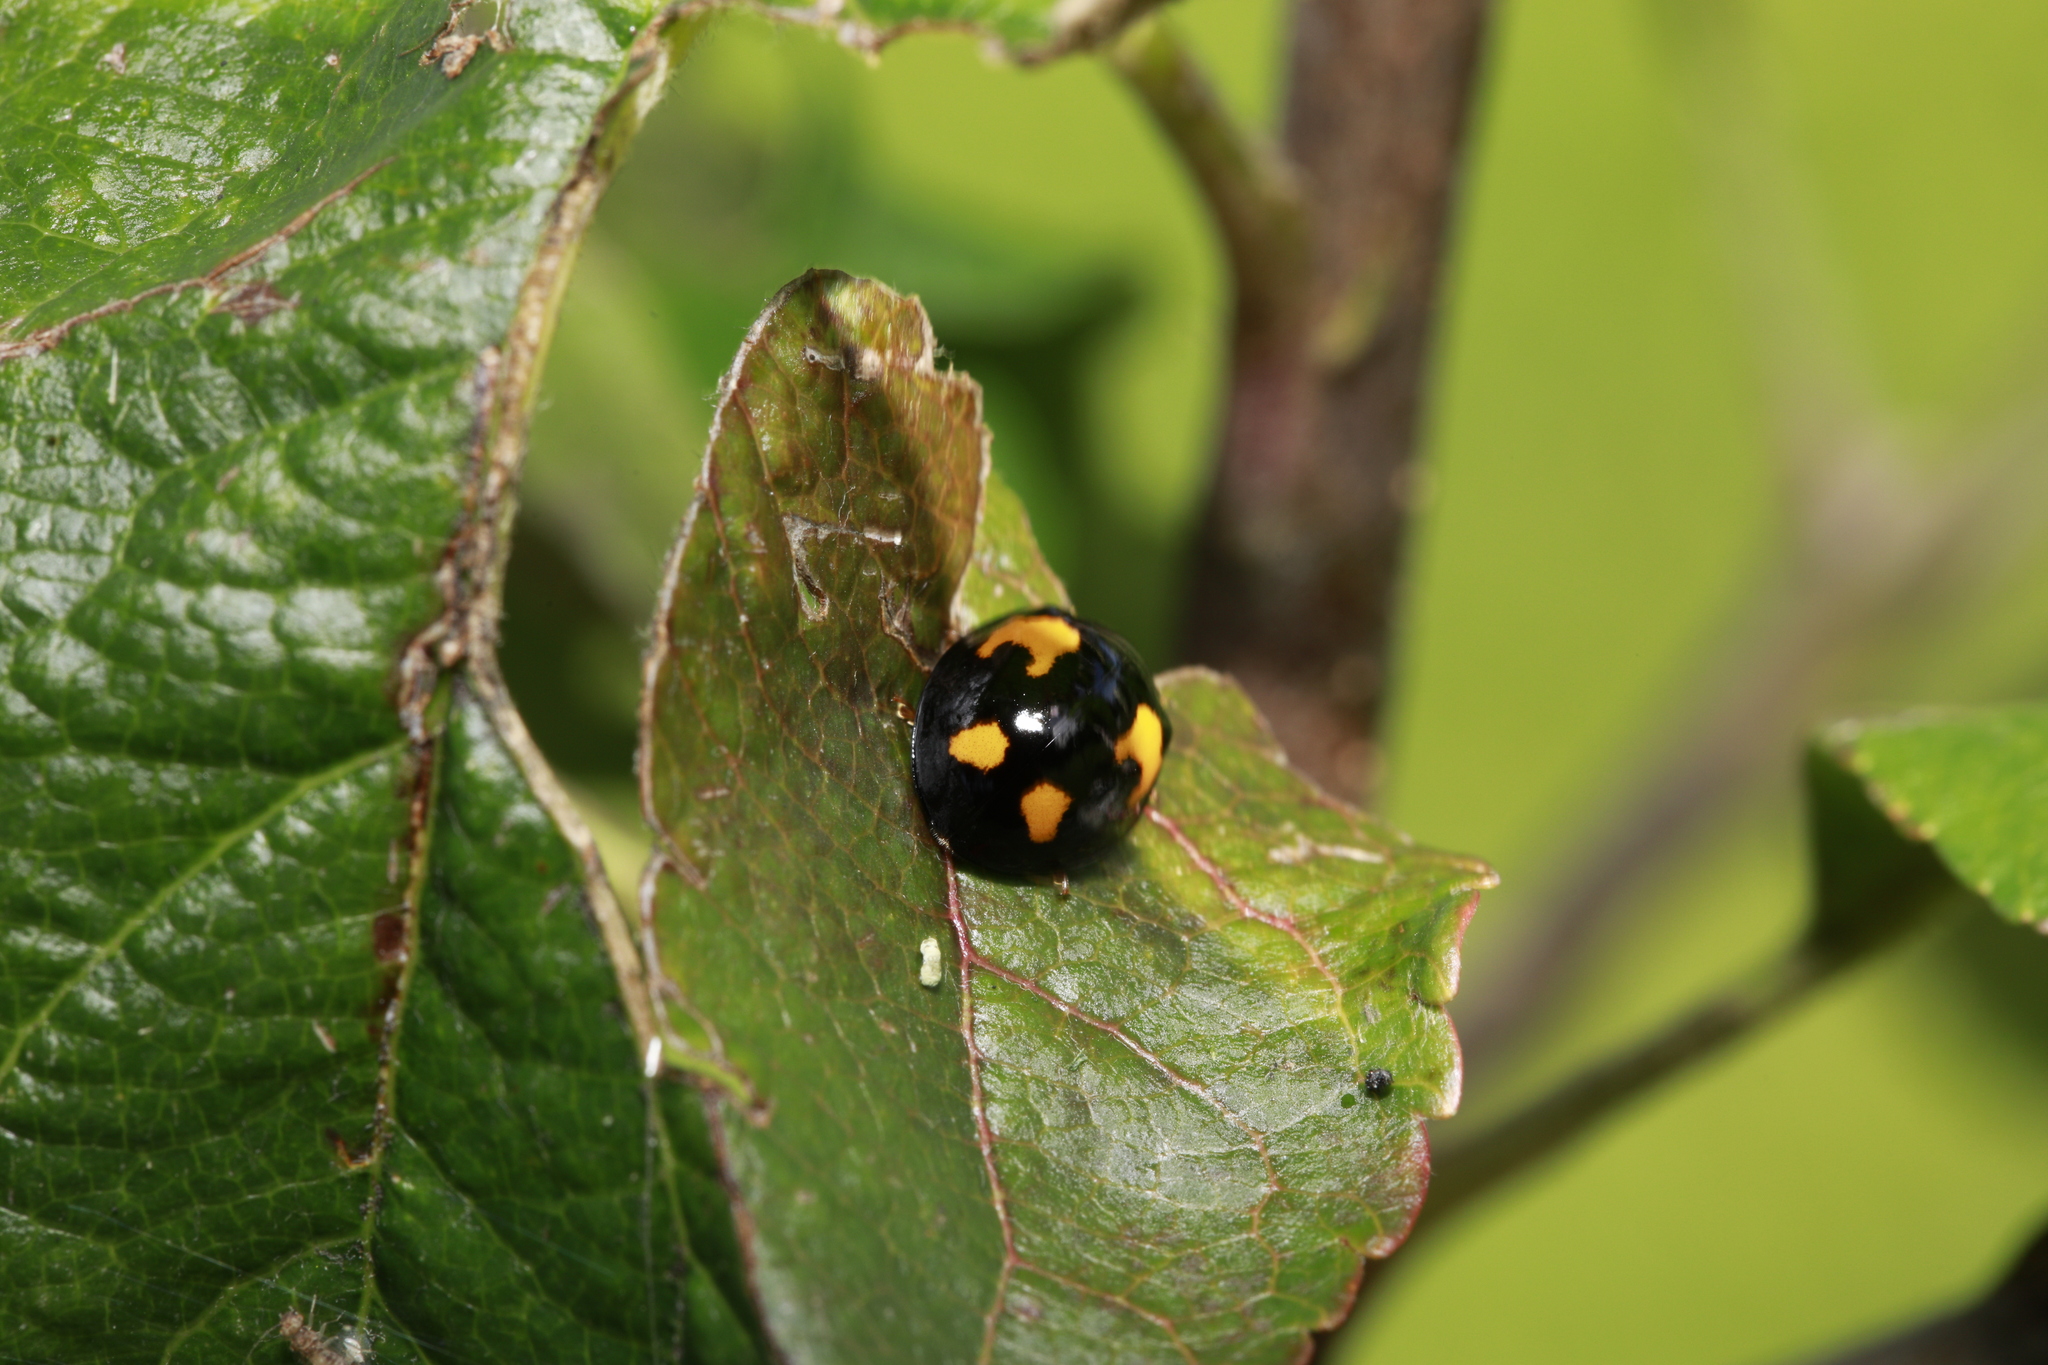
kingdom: Animalia
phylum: Arthropoda
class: Insecta
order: Coleoptera
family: Coccinellidae
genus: Harmonia
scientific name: Harmonia axyridis
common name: Harlequin ladybird
